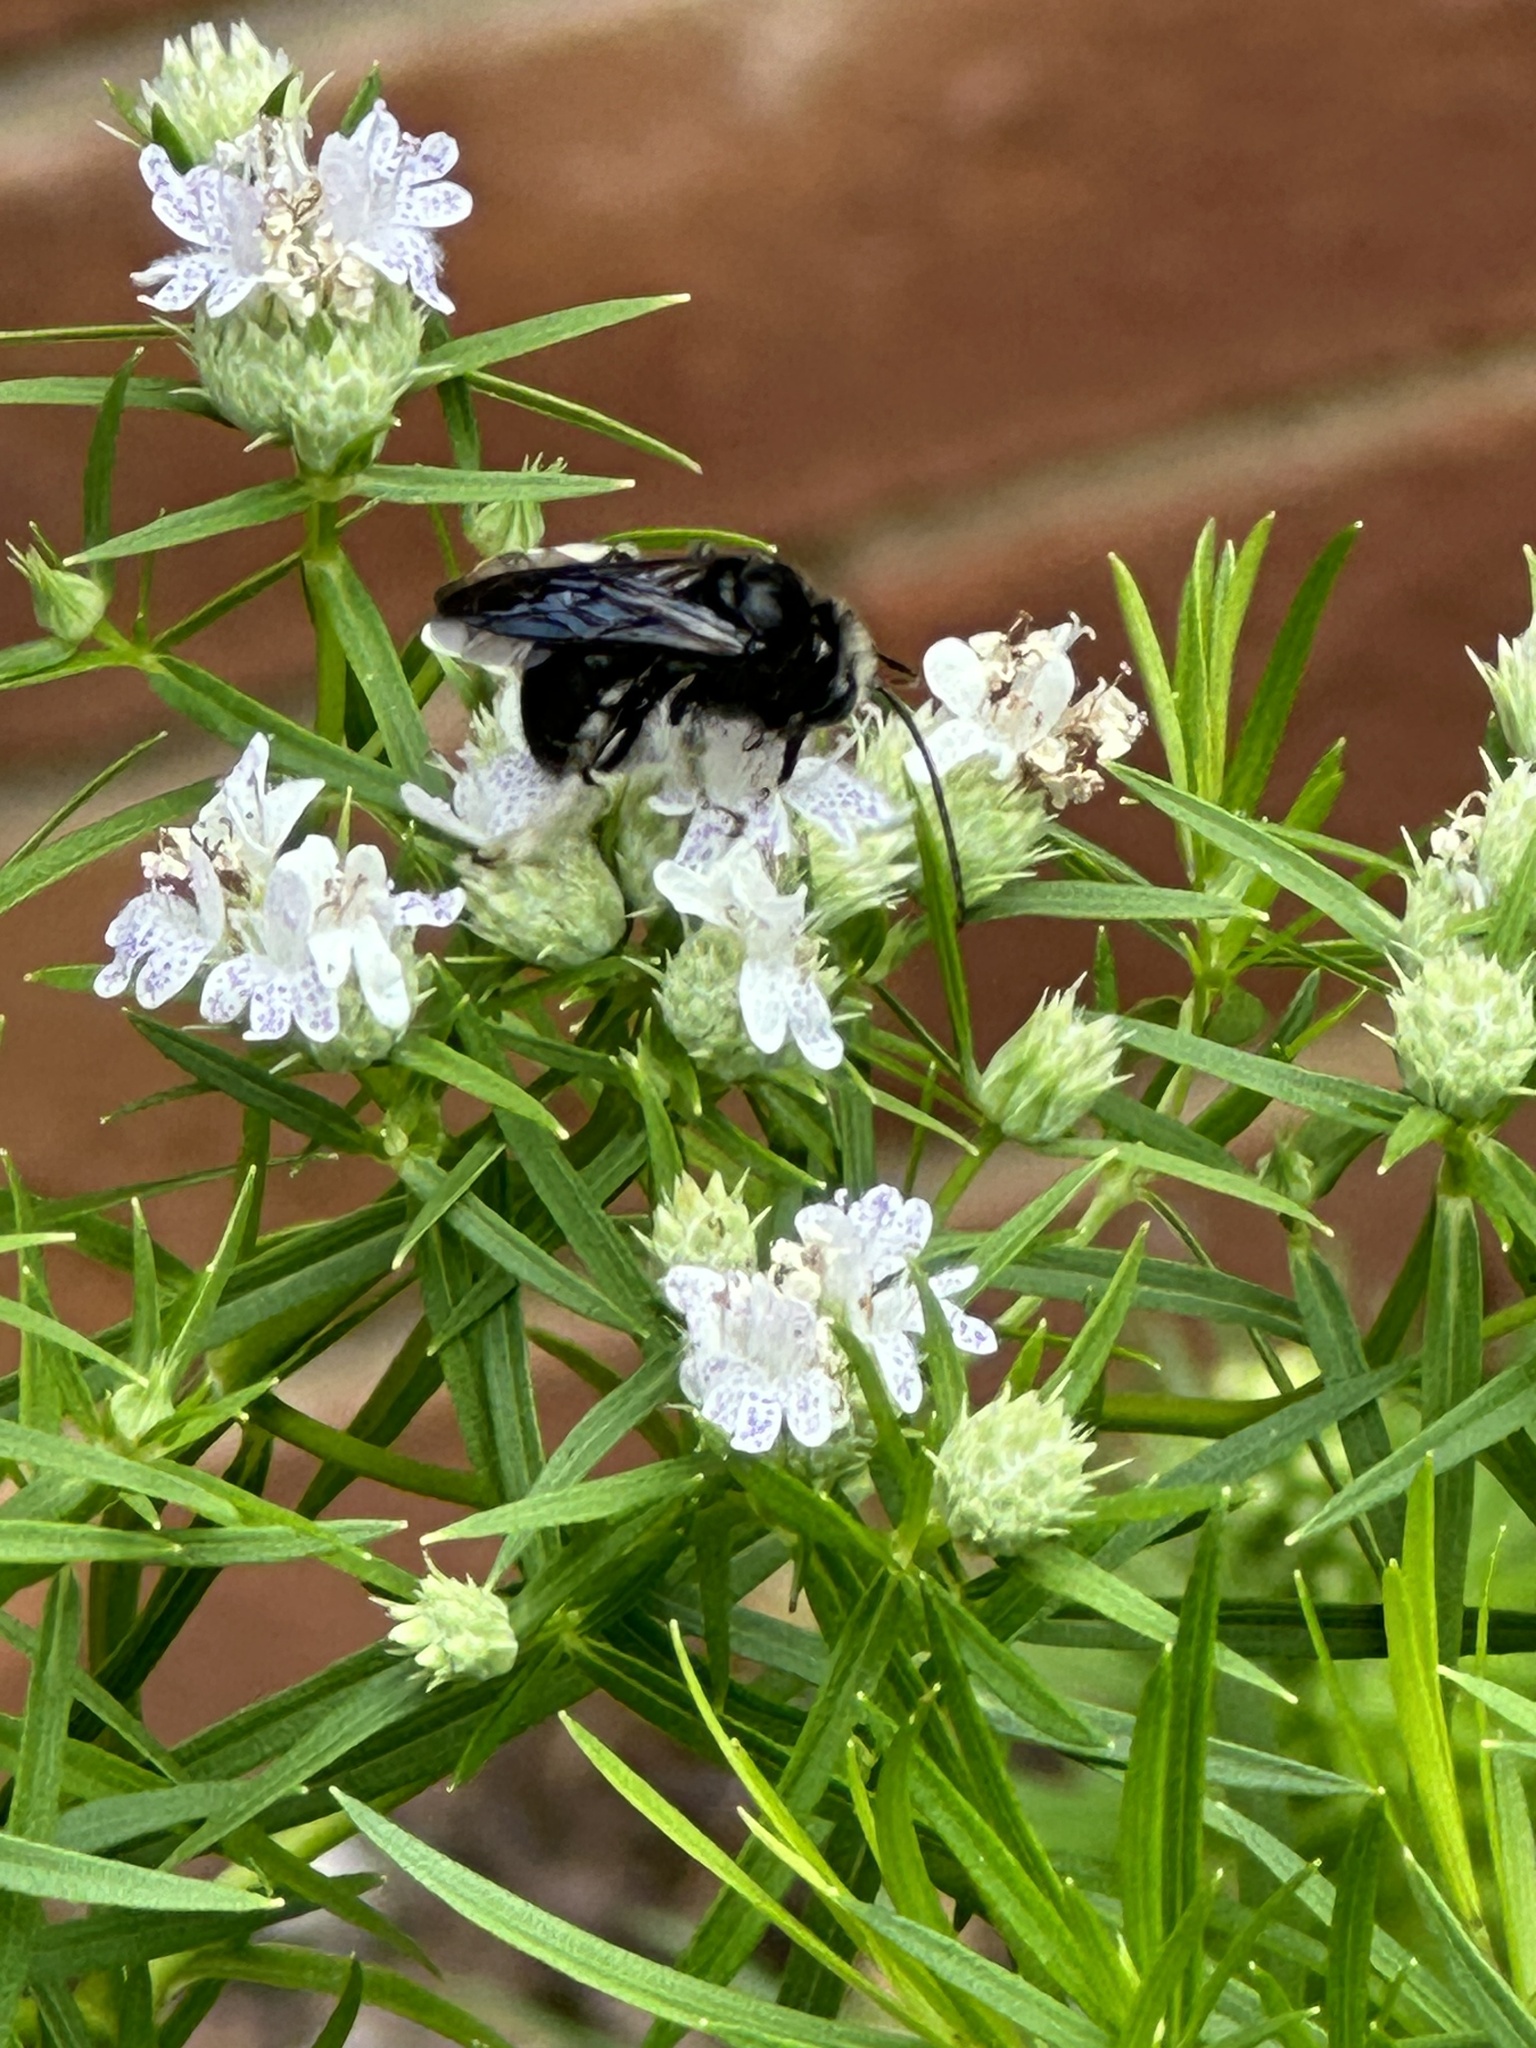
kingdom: Animalia
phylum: Arthropoda
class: Insecta
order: Hymenoptera
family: Apidae
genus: Melissodes
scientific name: Melissodes bimaculatus
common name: Two-spotted long-horned bee
